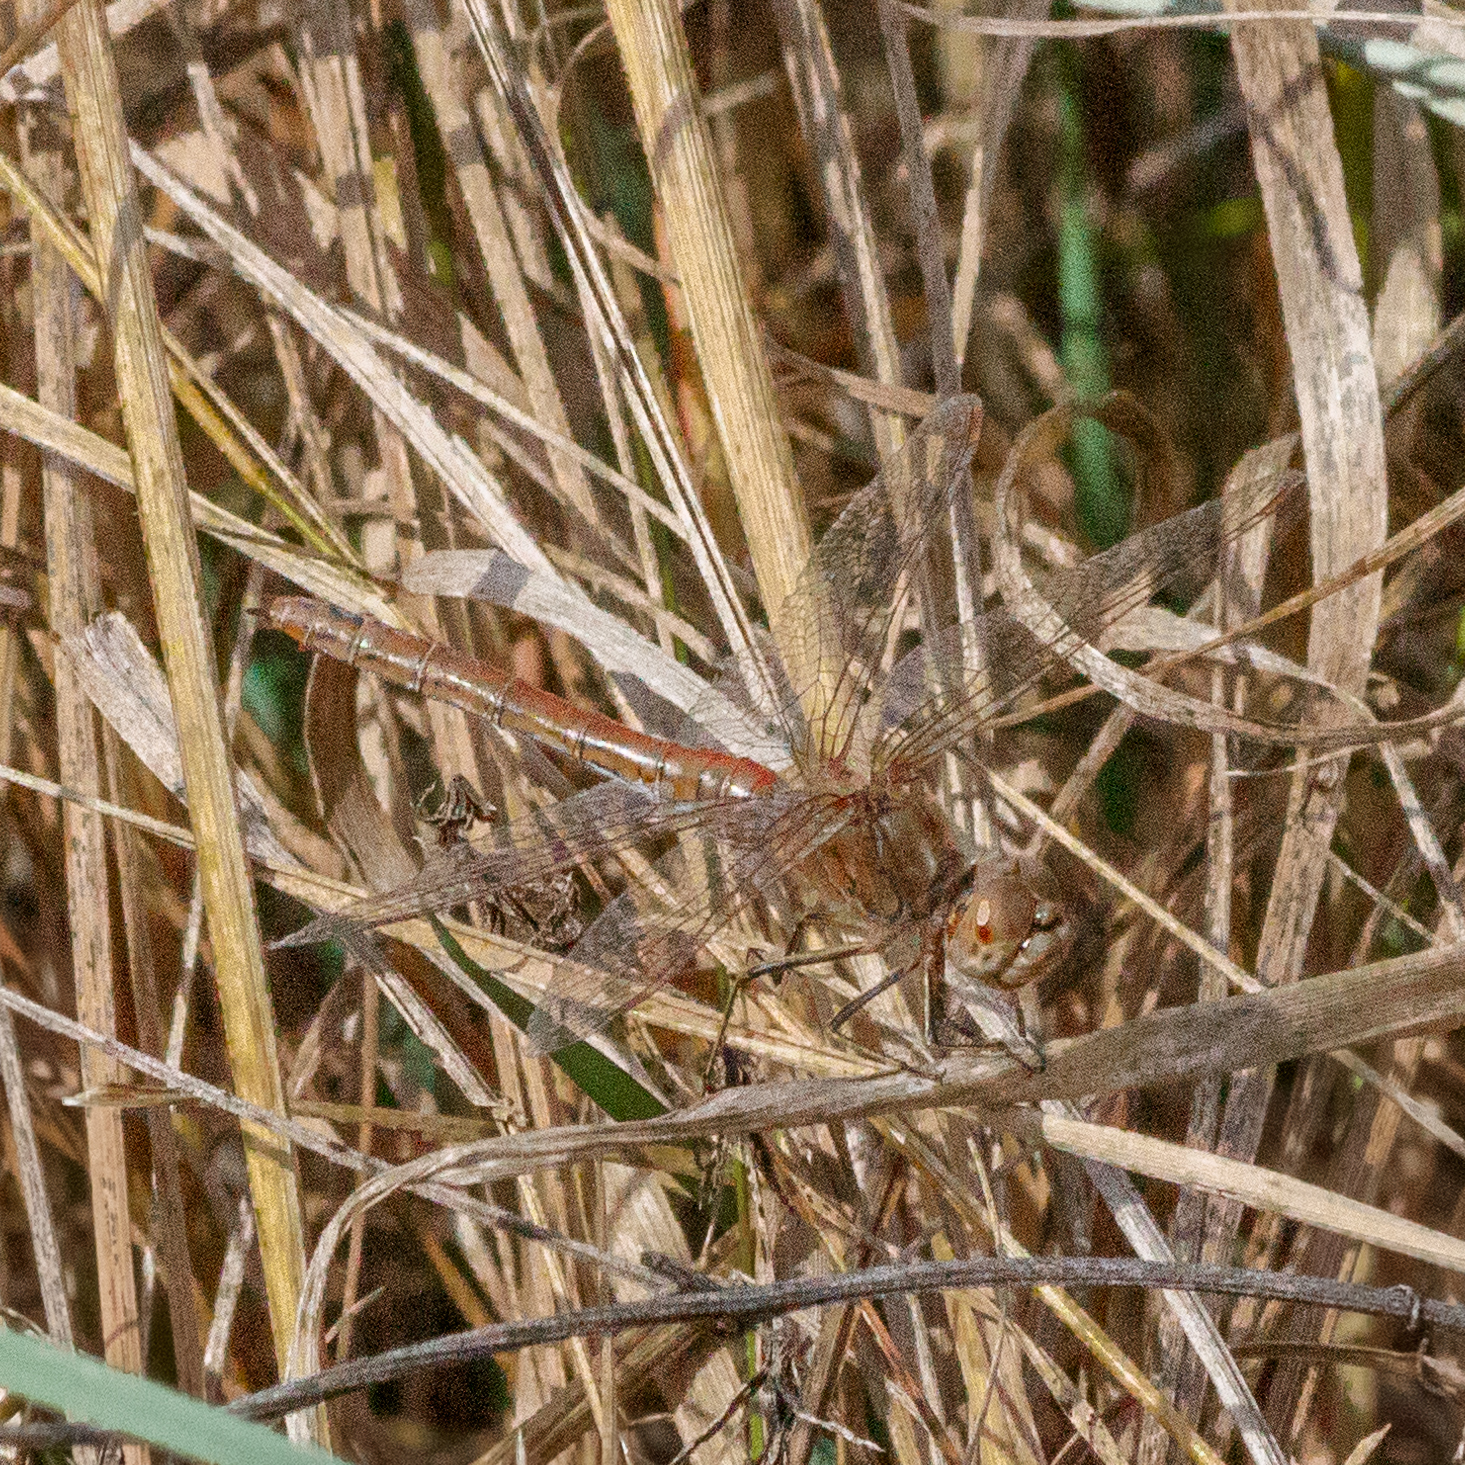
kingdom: Animalia
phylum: Arthropoda
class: Insecta
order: Odonata
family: Libellulidae
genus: Sympetrum
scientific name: Sympetrum vulgatum
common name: Vagrant darter
